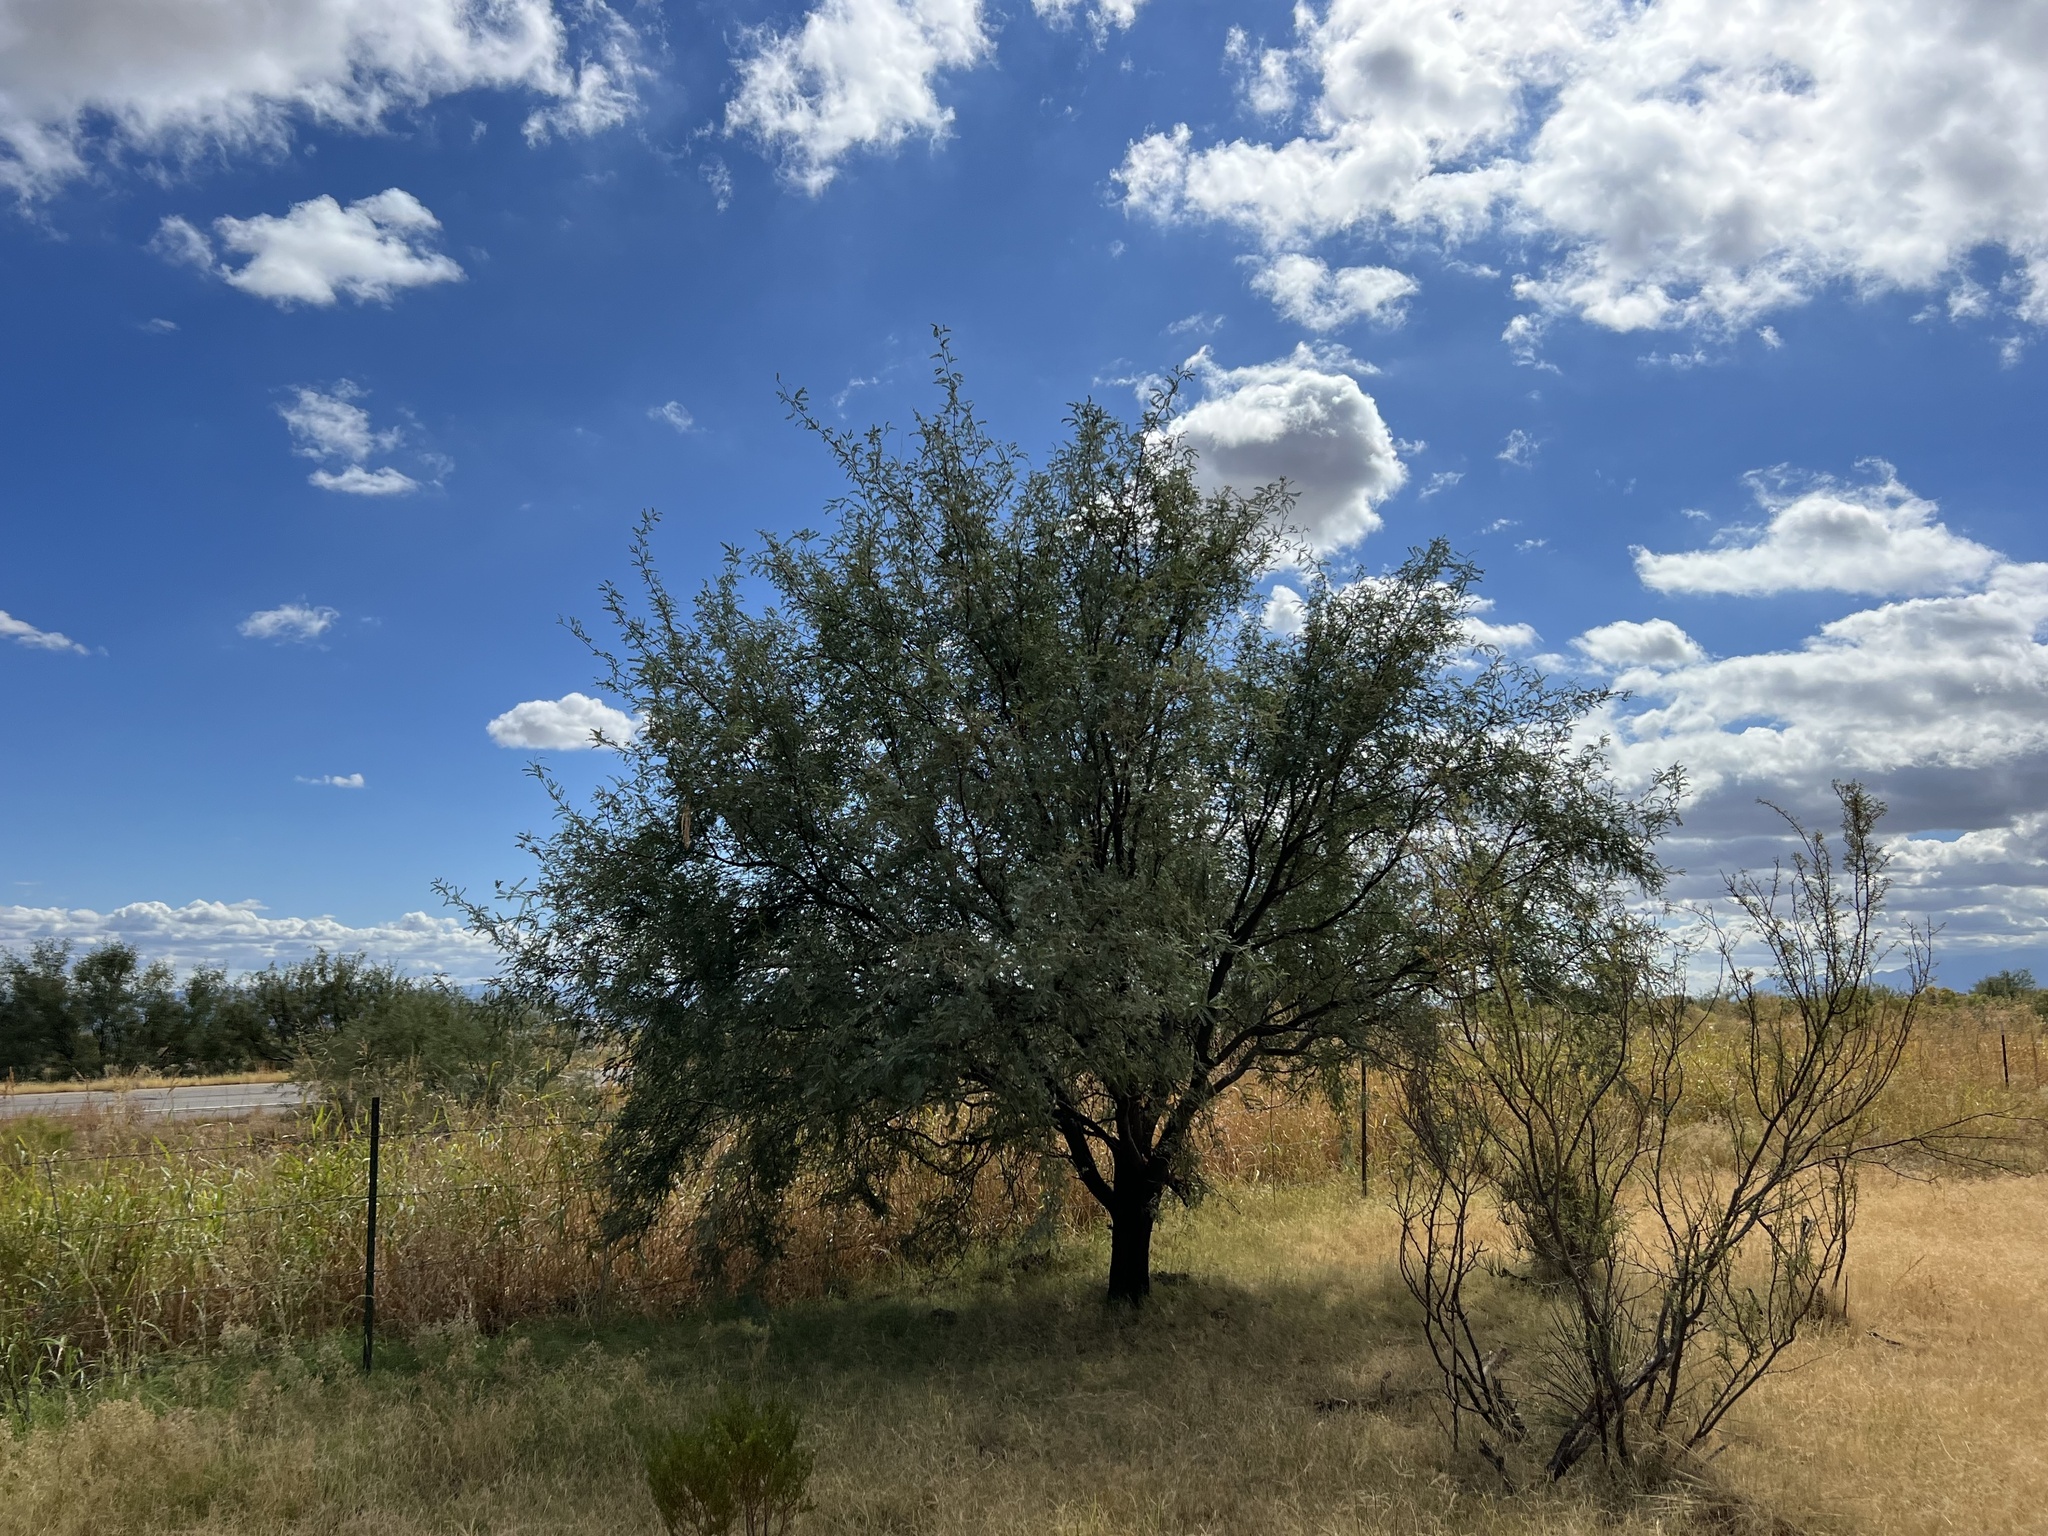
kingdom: Plantae
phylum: Tracheophyta
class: Magnoliopsida
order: Fabales
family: Fabaceae
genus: Prosopis
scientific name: Prosopis velutina
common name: Velvet mesquite
